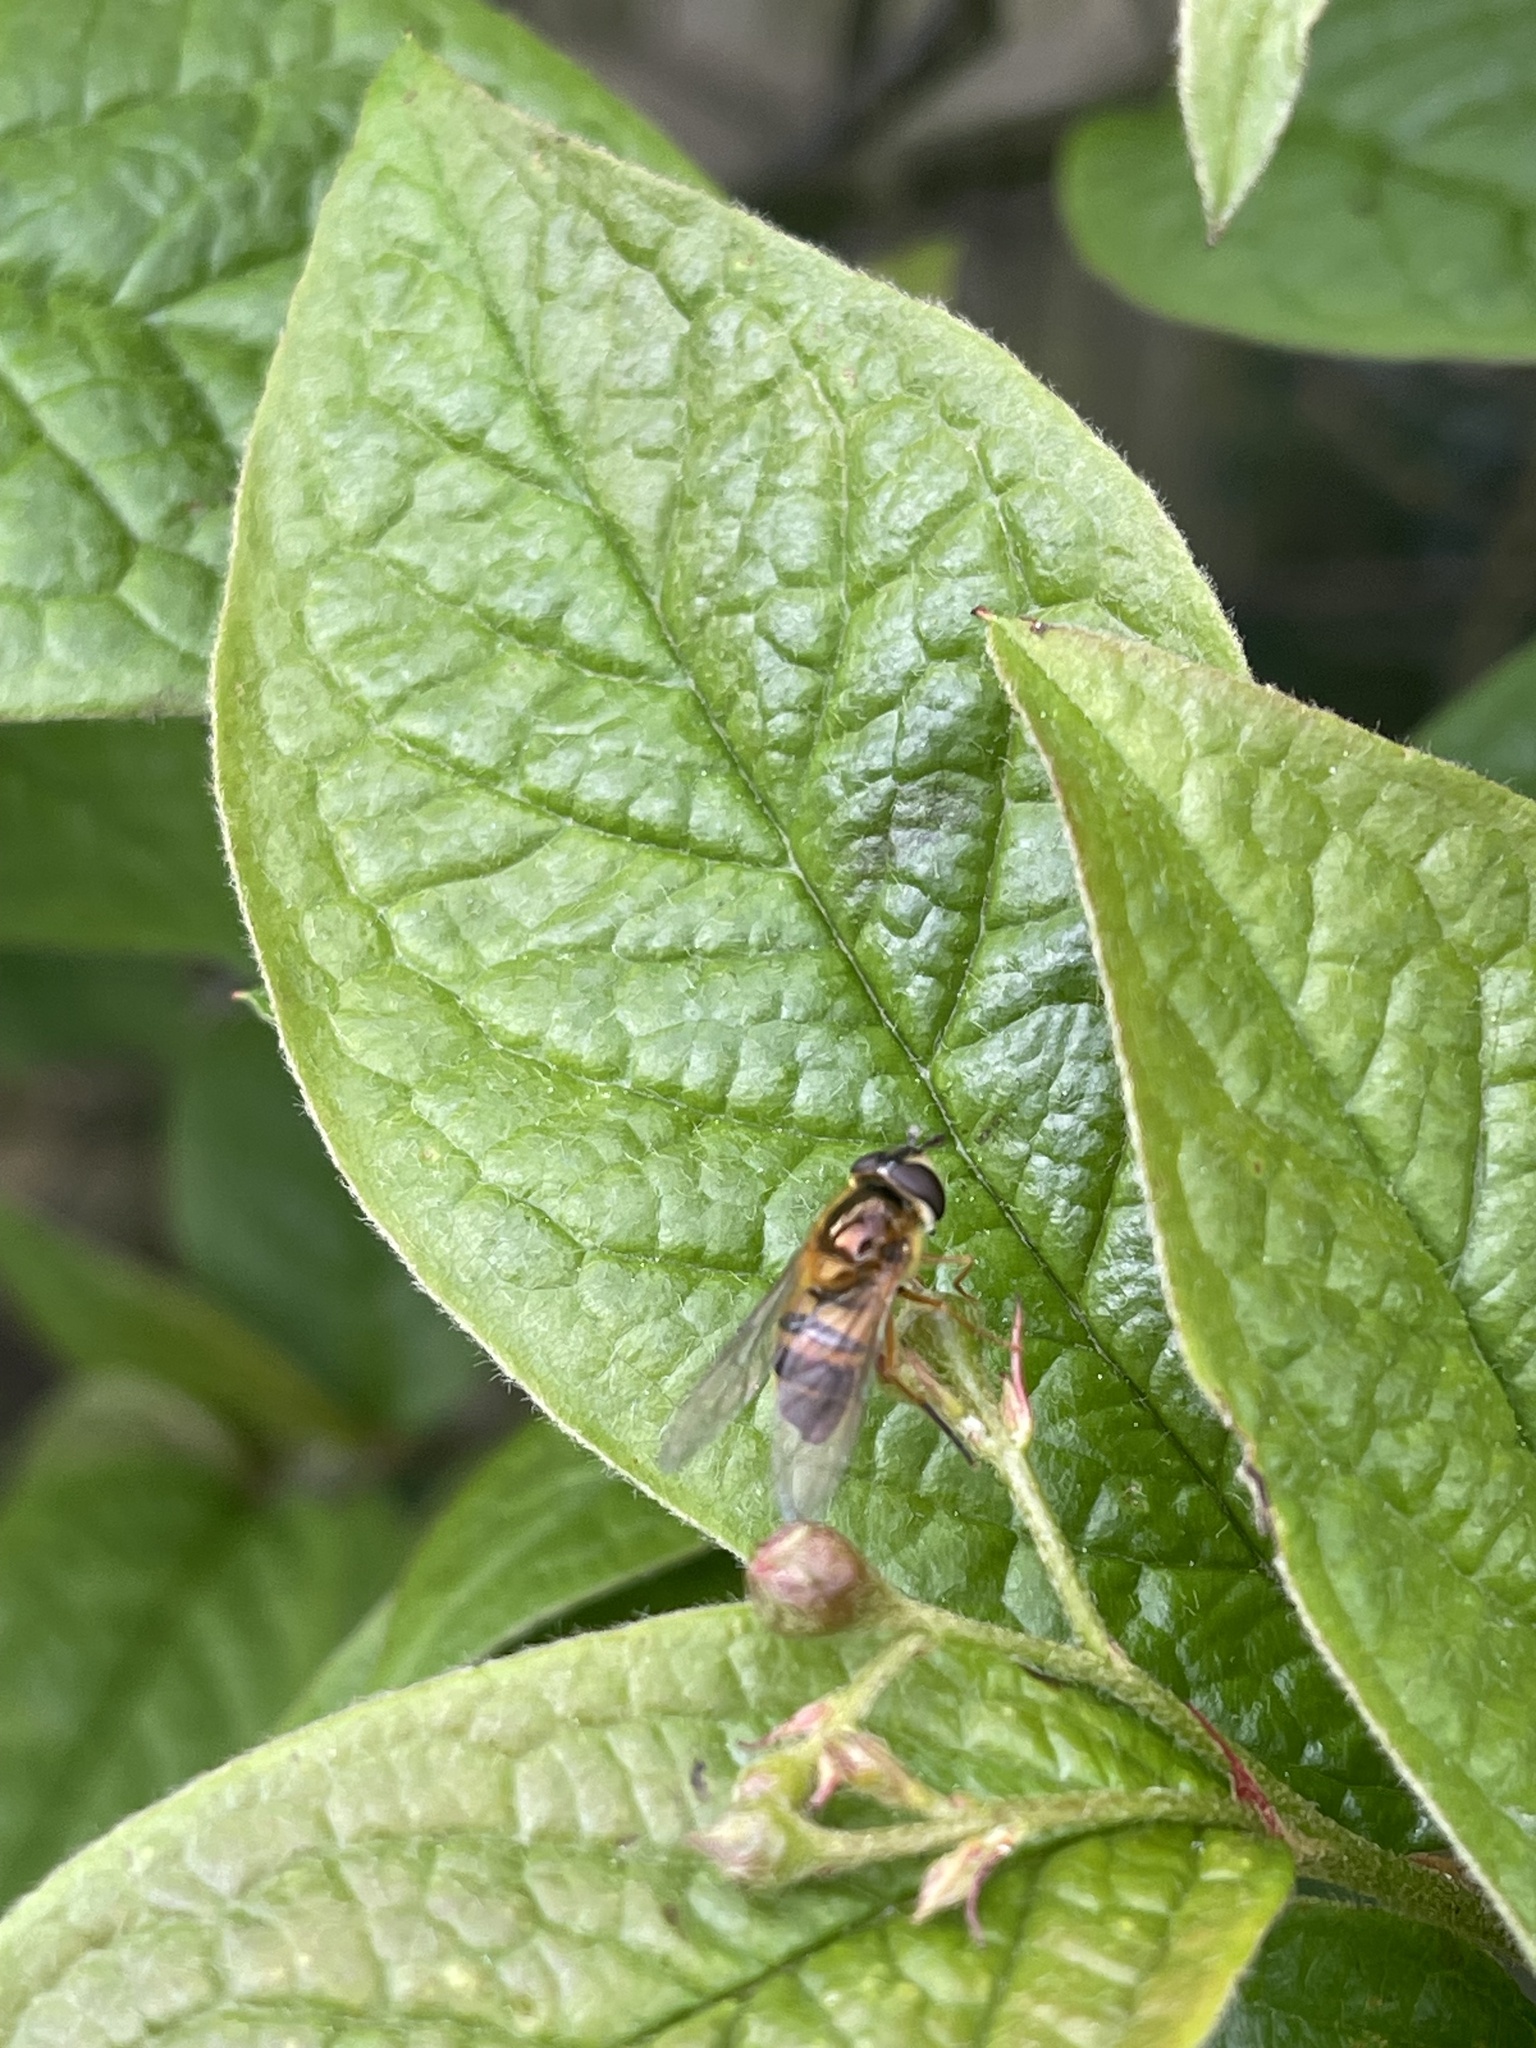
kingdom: Animalia
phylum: Arthropoda
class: Insecta
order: Diptera
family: Syrphidae
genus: Epistrophe
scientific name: Epistrophe eligans
